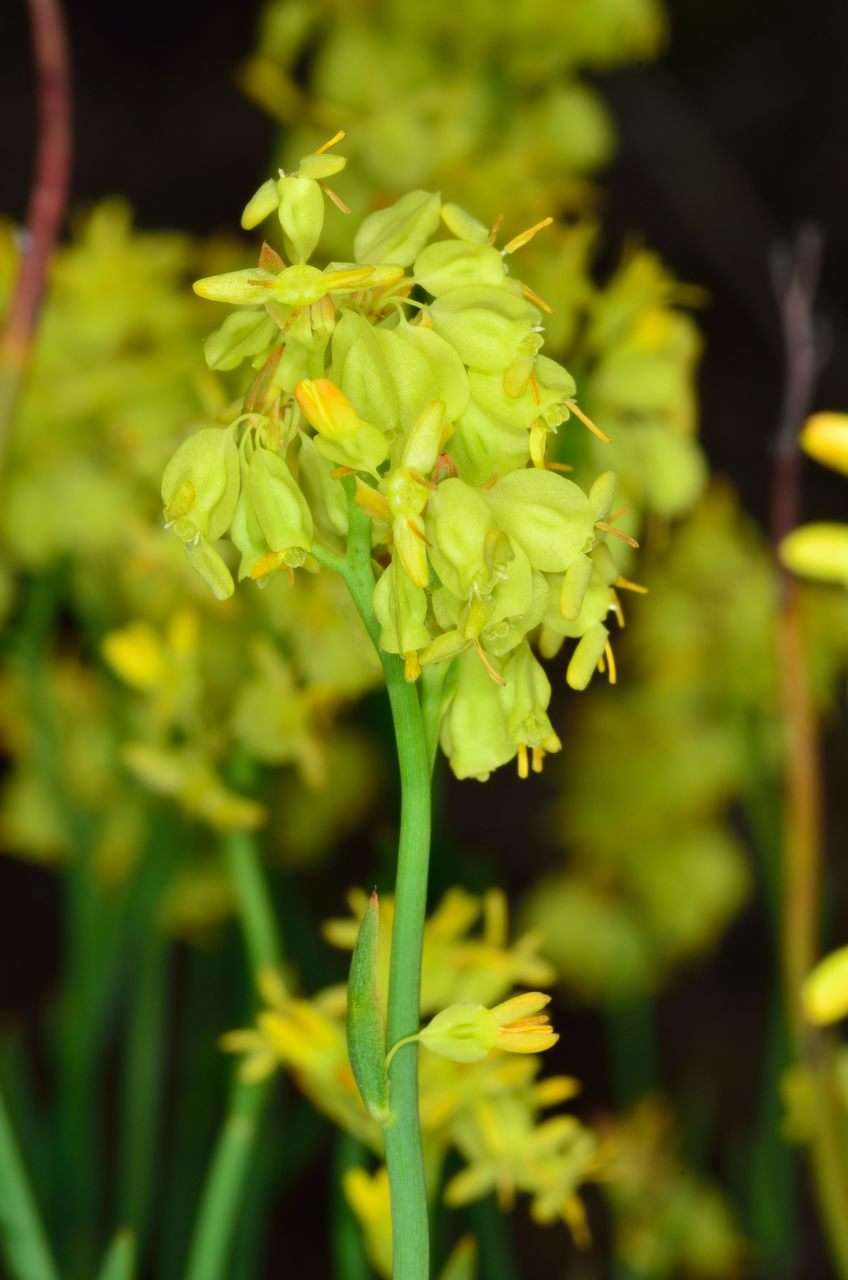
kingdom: Plantae
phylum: Tracheophyta
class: Magnoliopsida
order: Saxifragales
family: Haloragaceae
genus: Glischrocaryon
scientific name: Glischrocaryon behrii
